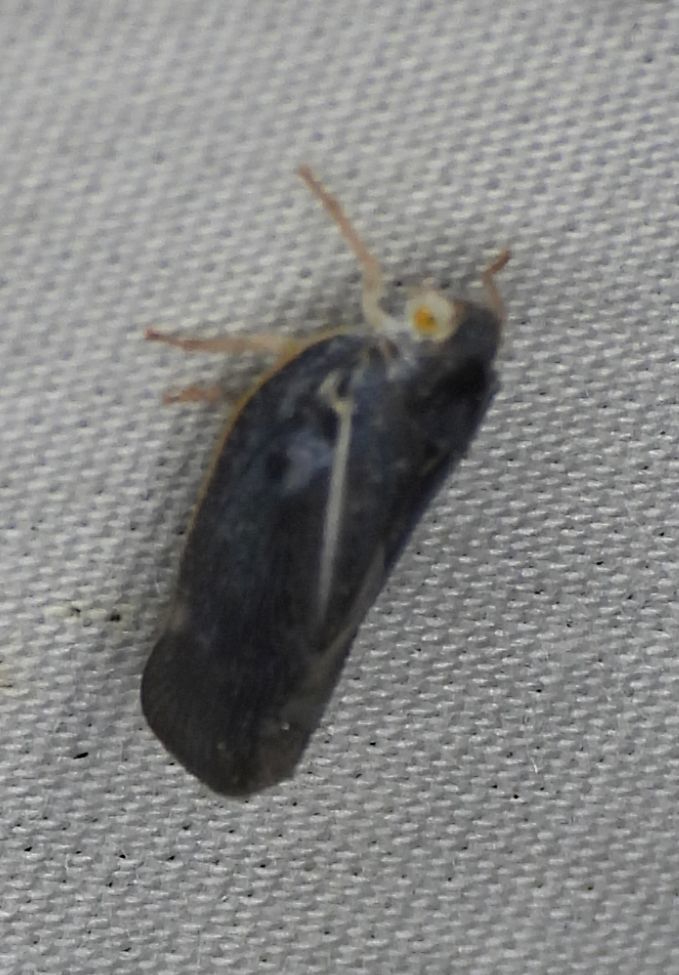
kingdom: Animalia
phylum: Arthropoda
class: Insecta
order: Hemiptera
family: Flatidae
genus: Metcalfa
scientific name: Metcalfa pruinosa
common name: Citrus flatid planthopper
